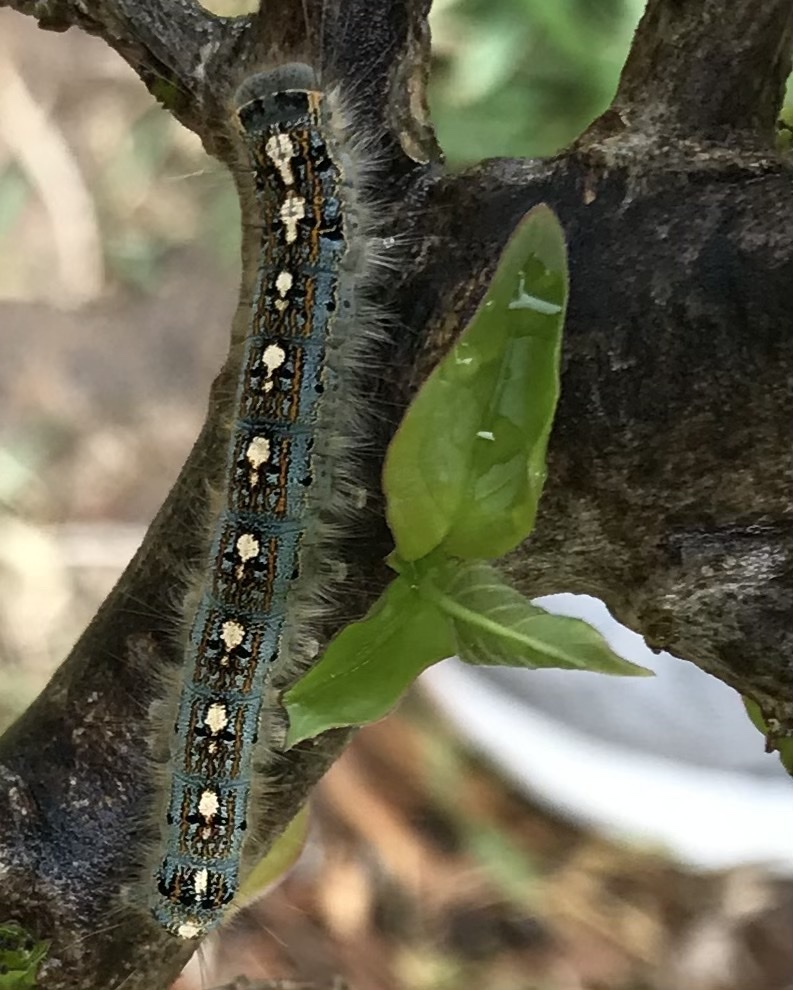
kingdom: Animalia
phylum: Arthropoda
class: Insecta
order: Lepidoptera
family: Lasiocampidae
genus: Malacosoma
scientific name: Malacosoma disstria
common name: Forest tent caterpillar
